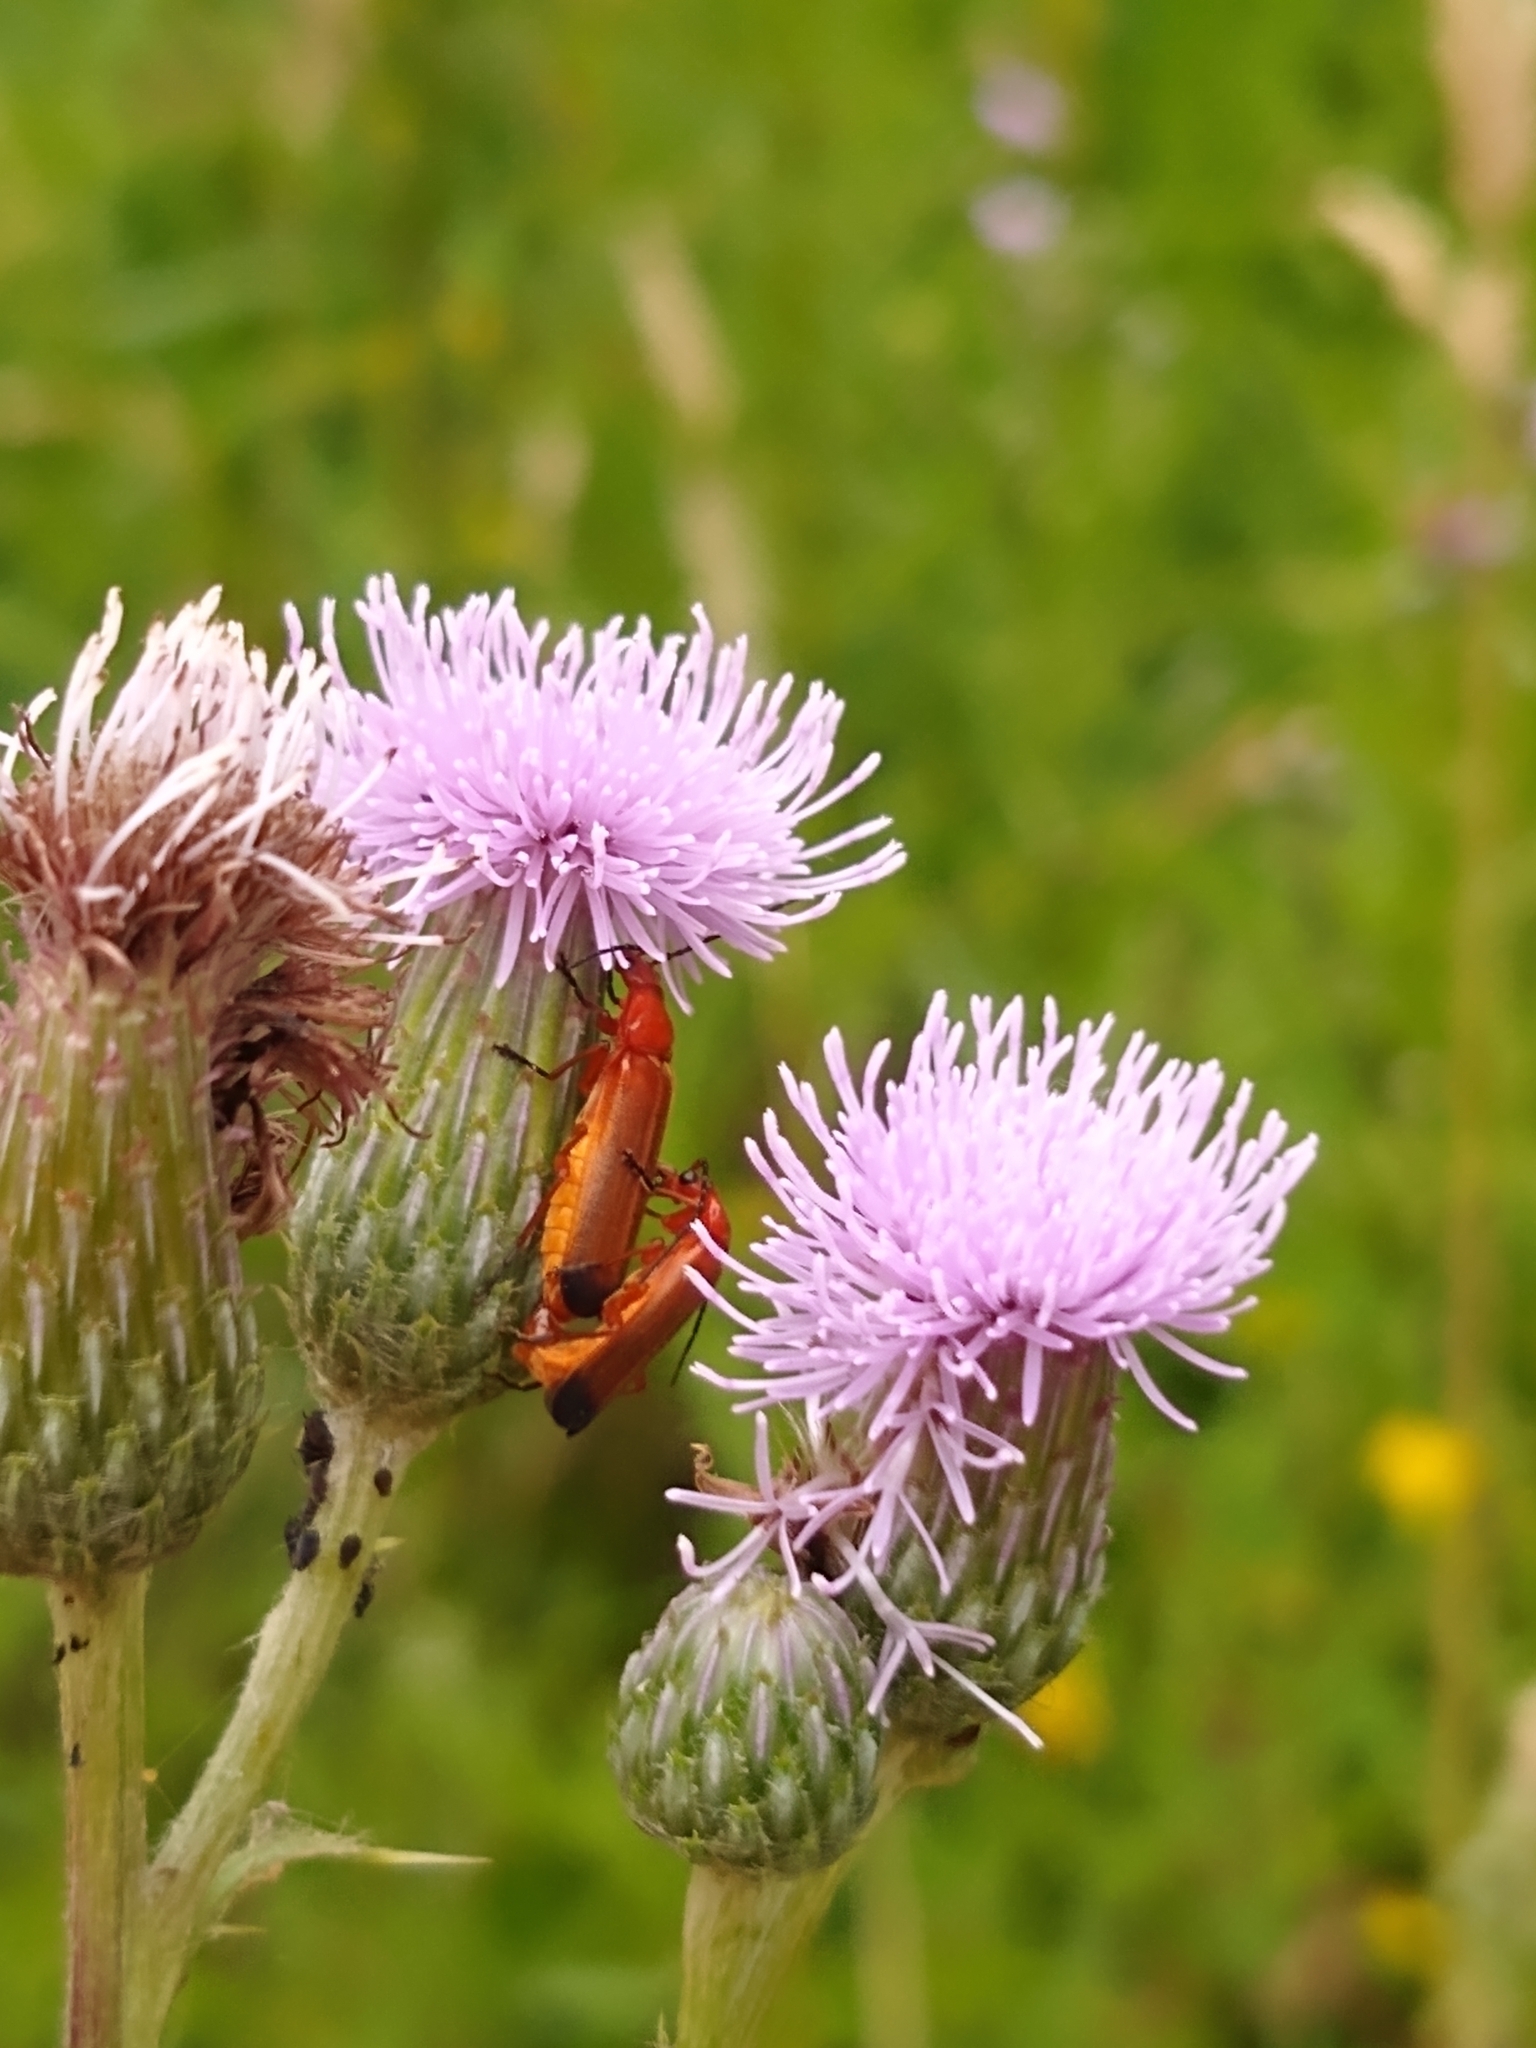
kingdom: Animalia
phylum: Arthropoda
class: Insecta
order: Coleoptera
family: Cantharidae
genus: Rhagonycha
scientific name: Rhagonycha fulva
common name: Common red soldier beetle
